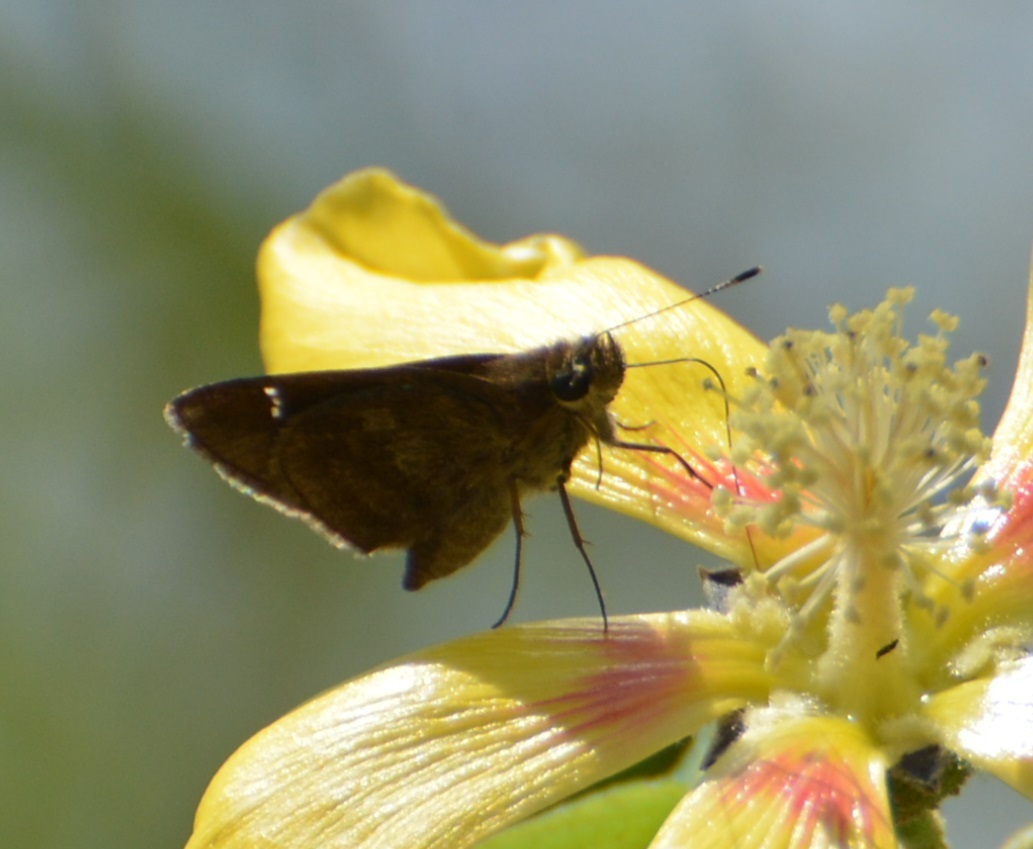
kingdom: Animalia
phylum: Arthropoda
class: Insecta
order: Lepidoptera
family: Hesperiidae
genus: Lerema
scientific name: Lerema accius
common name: Clouded skipper
